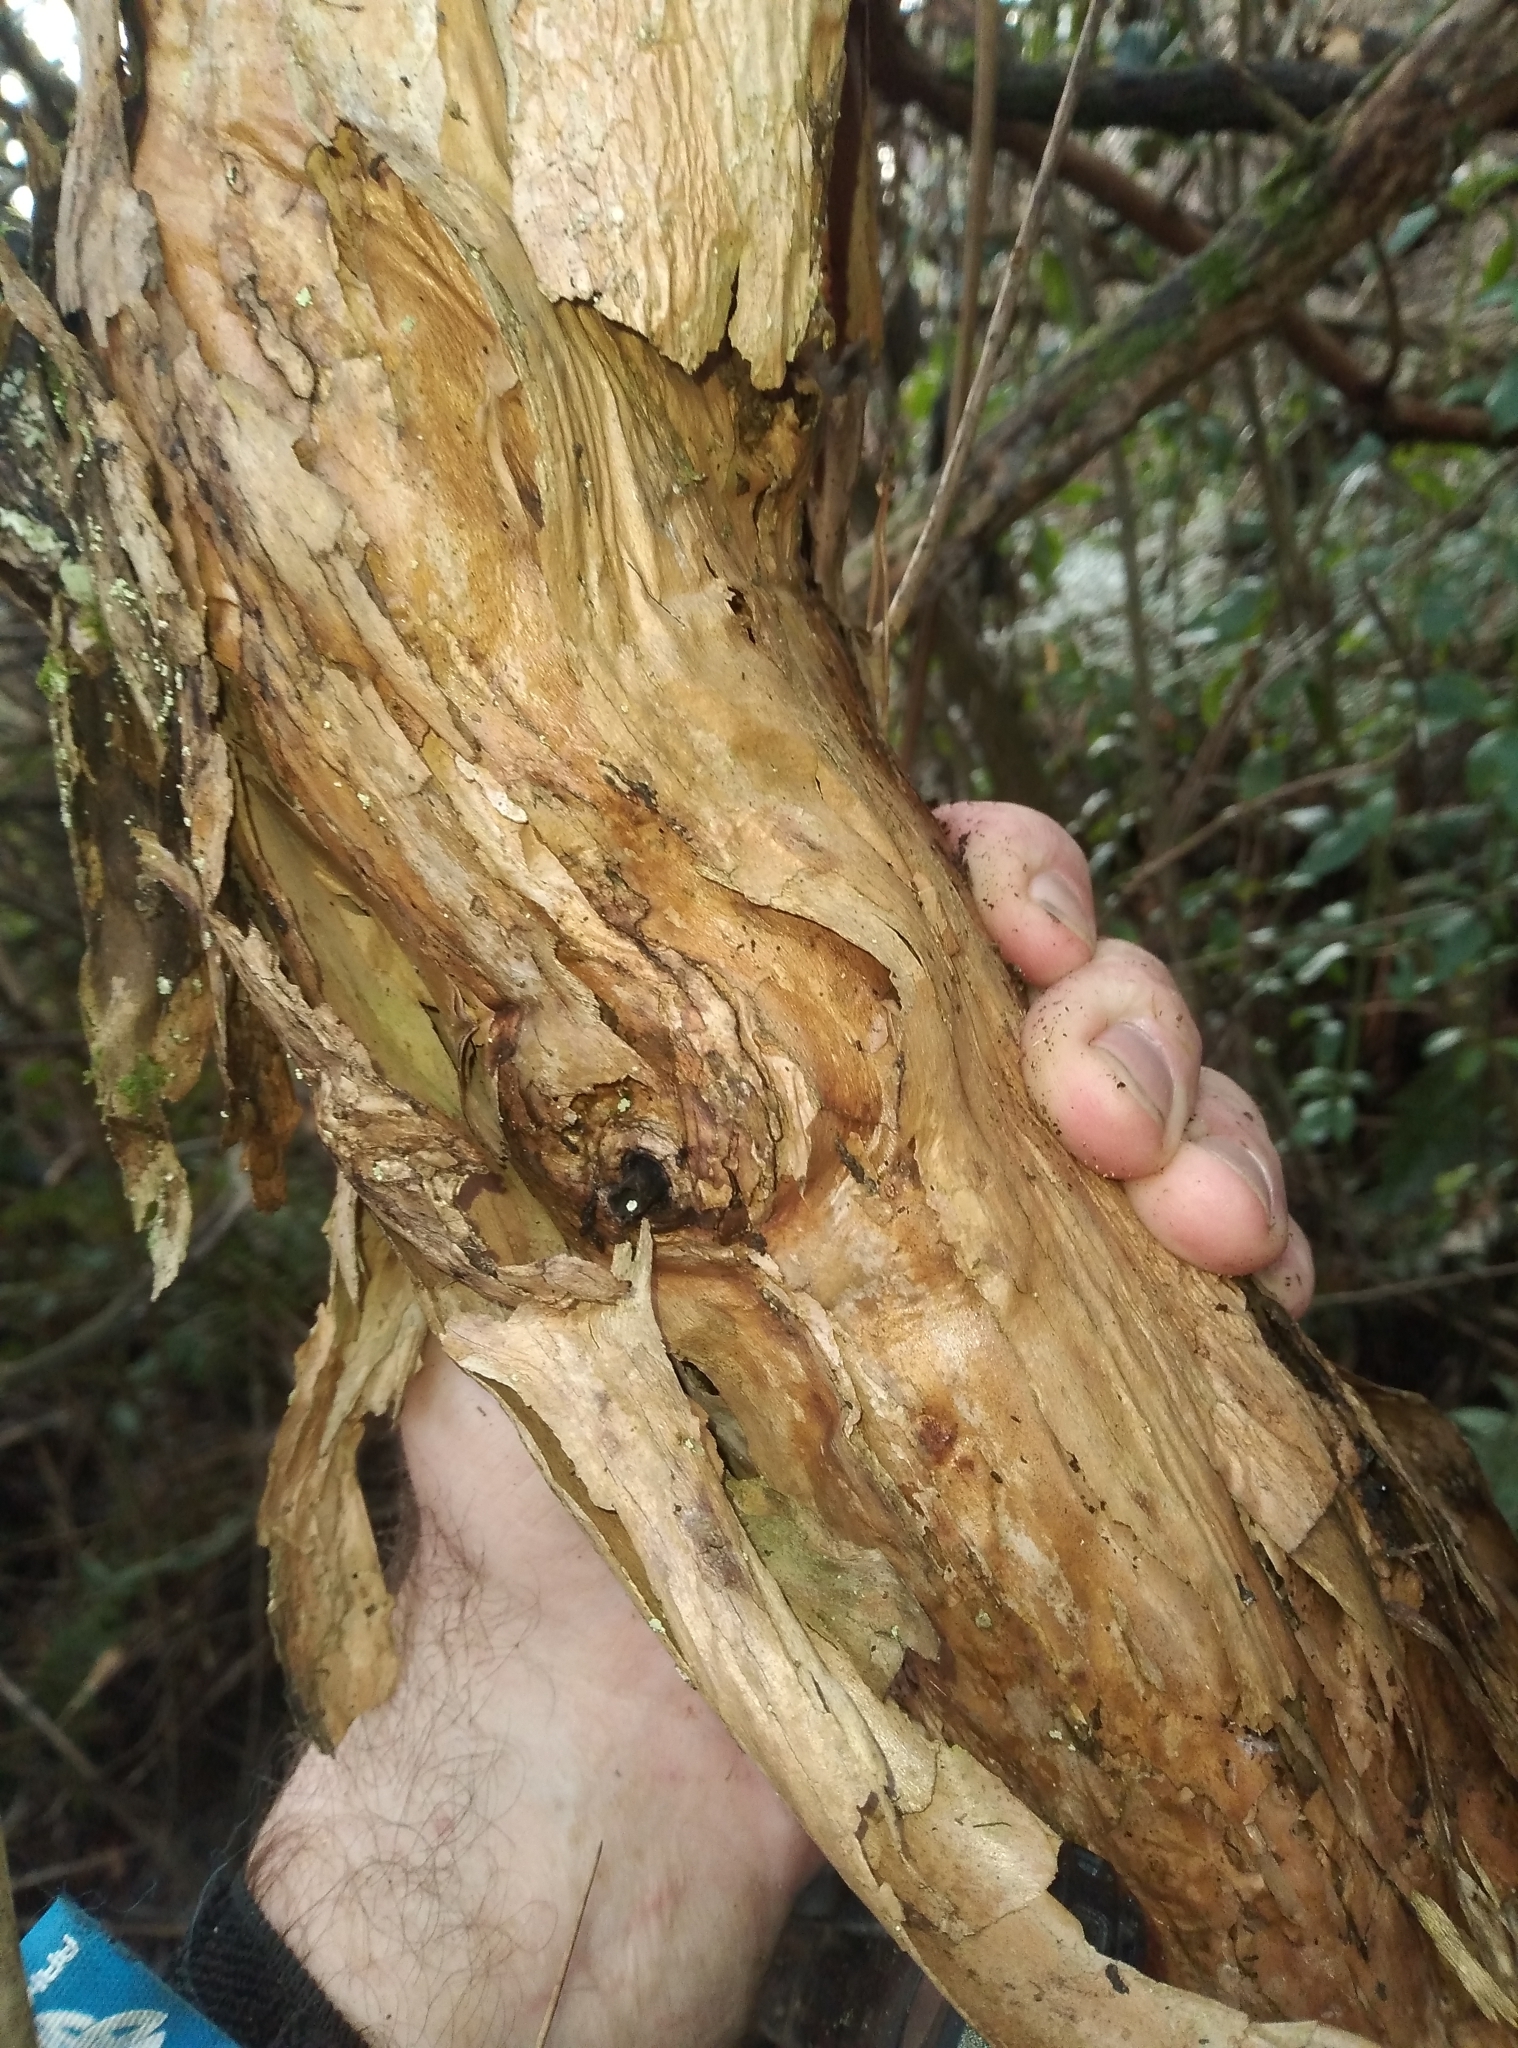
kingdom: Plantae
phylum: Tracheophyta
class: Magnoliopsida
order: Myrtales
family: Onagraceae
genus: Fuchsia
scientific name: Fuchsia excorticata
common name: Tree fuchsia
